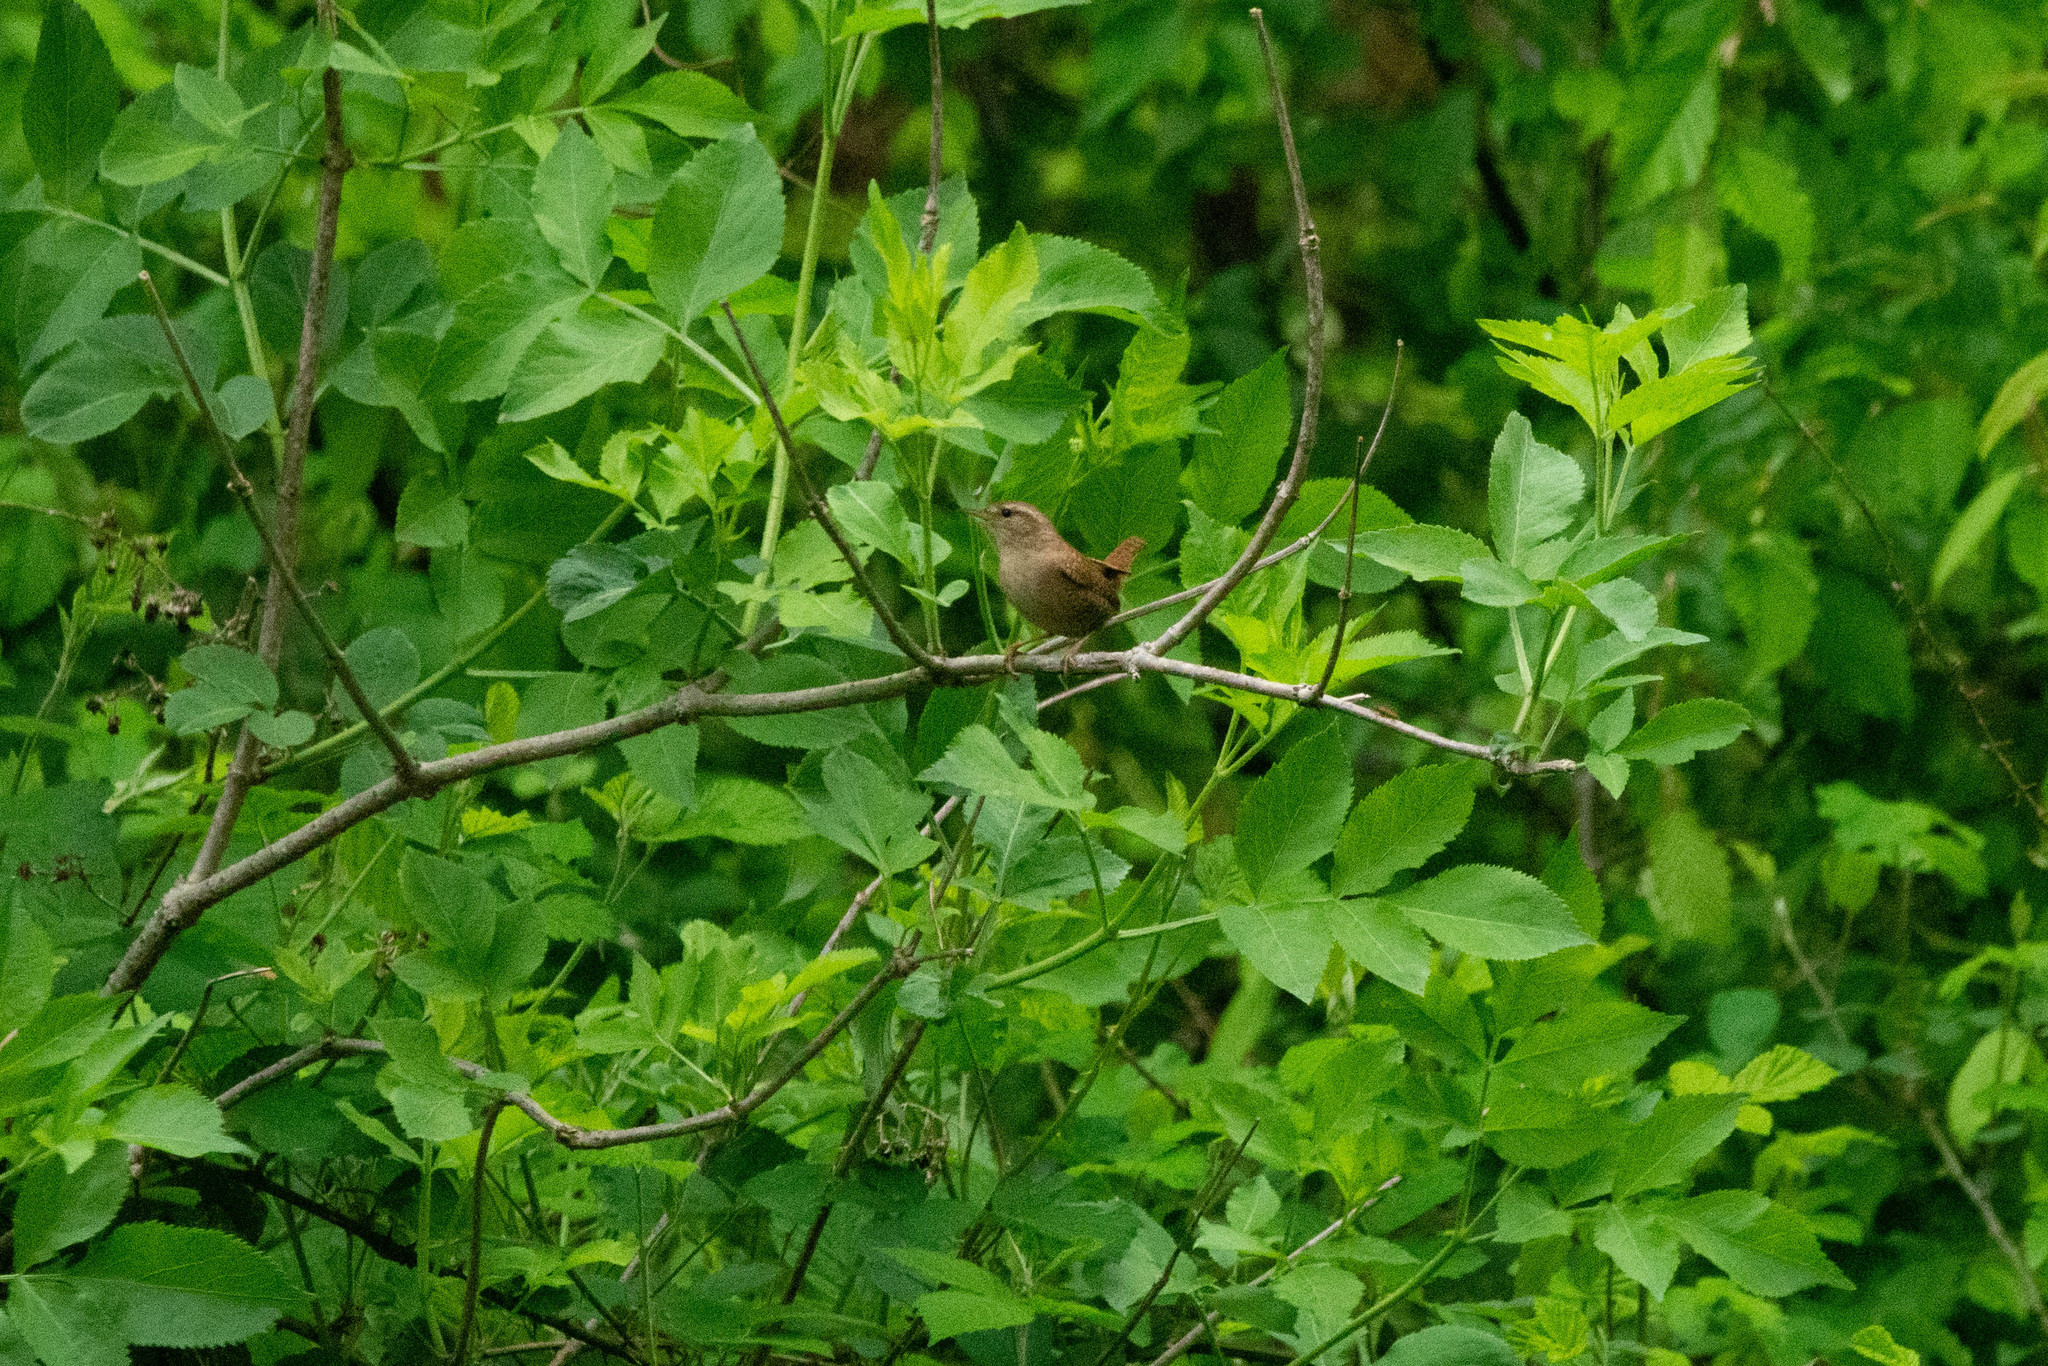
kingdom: Animalia
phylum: Chordata
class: Aves
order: Passeriformes
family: Troglodytidae
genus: Troglodytes
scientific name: Troglodytes troglodytes
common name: Eurasian wren
